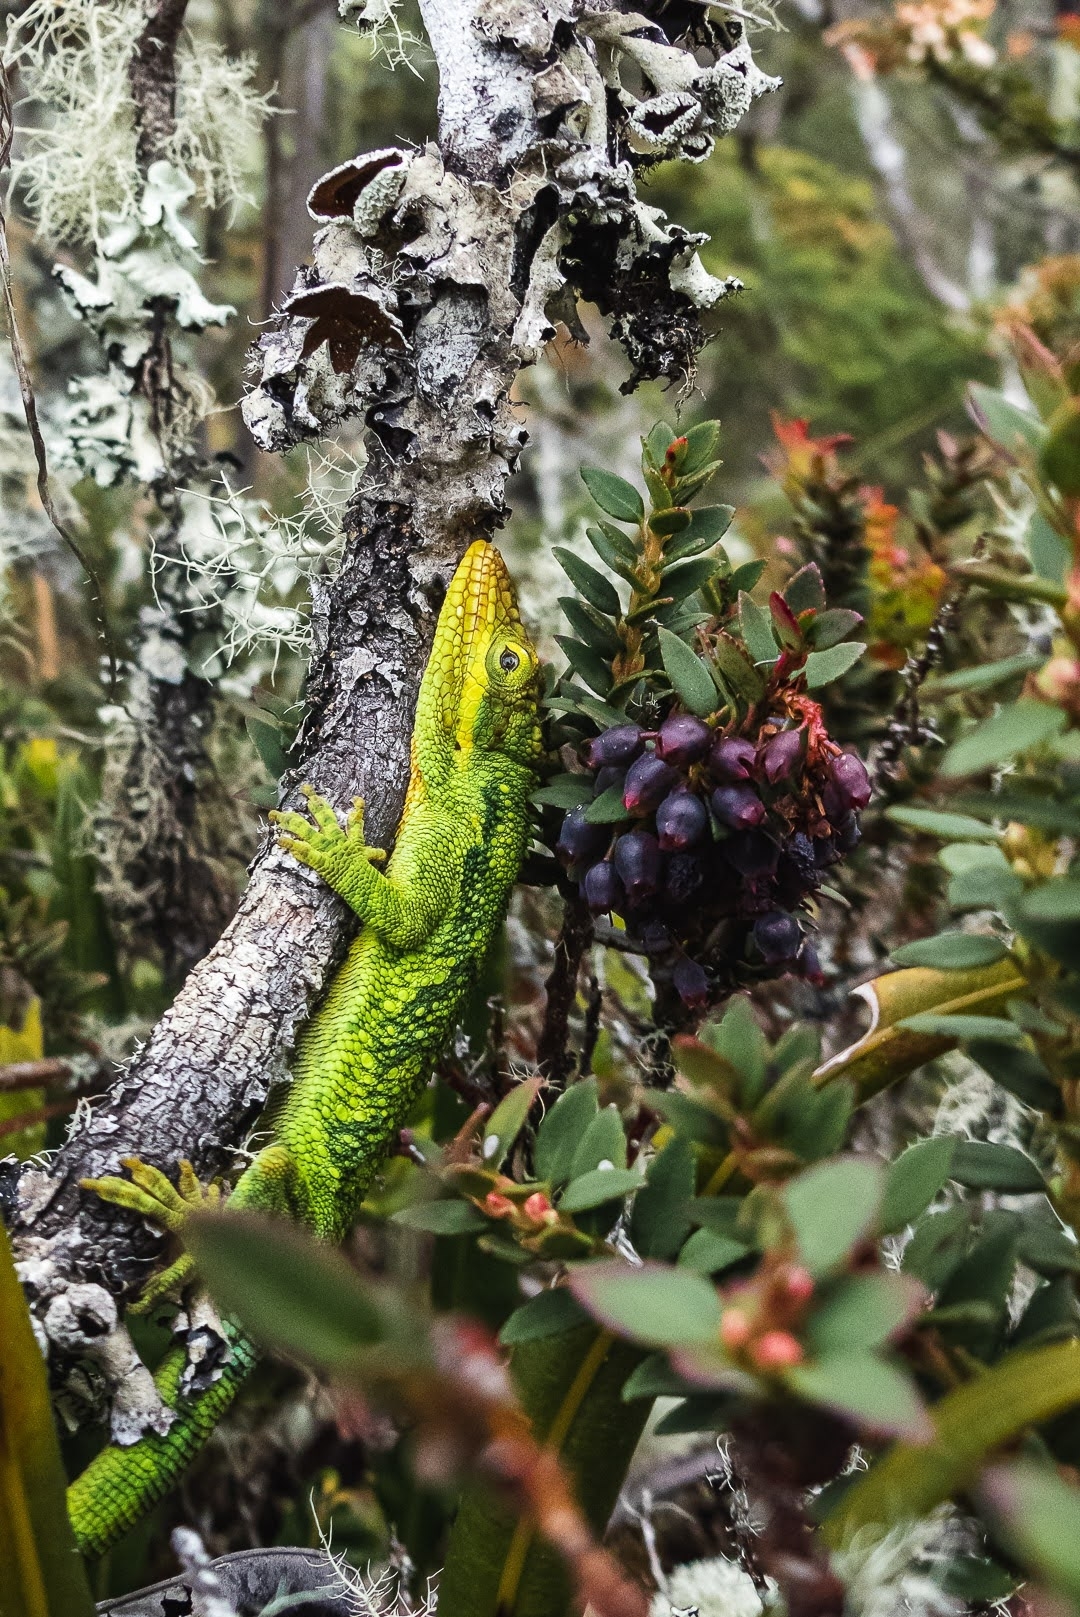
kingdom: Animalia
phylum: Chordata
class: Squamata
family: Dactyloidae
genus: Anolis
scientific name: Anolis heterodermus
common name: Flat andes anole
